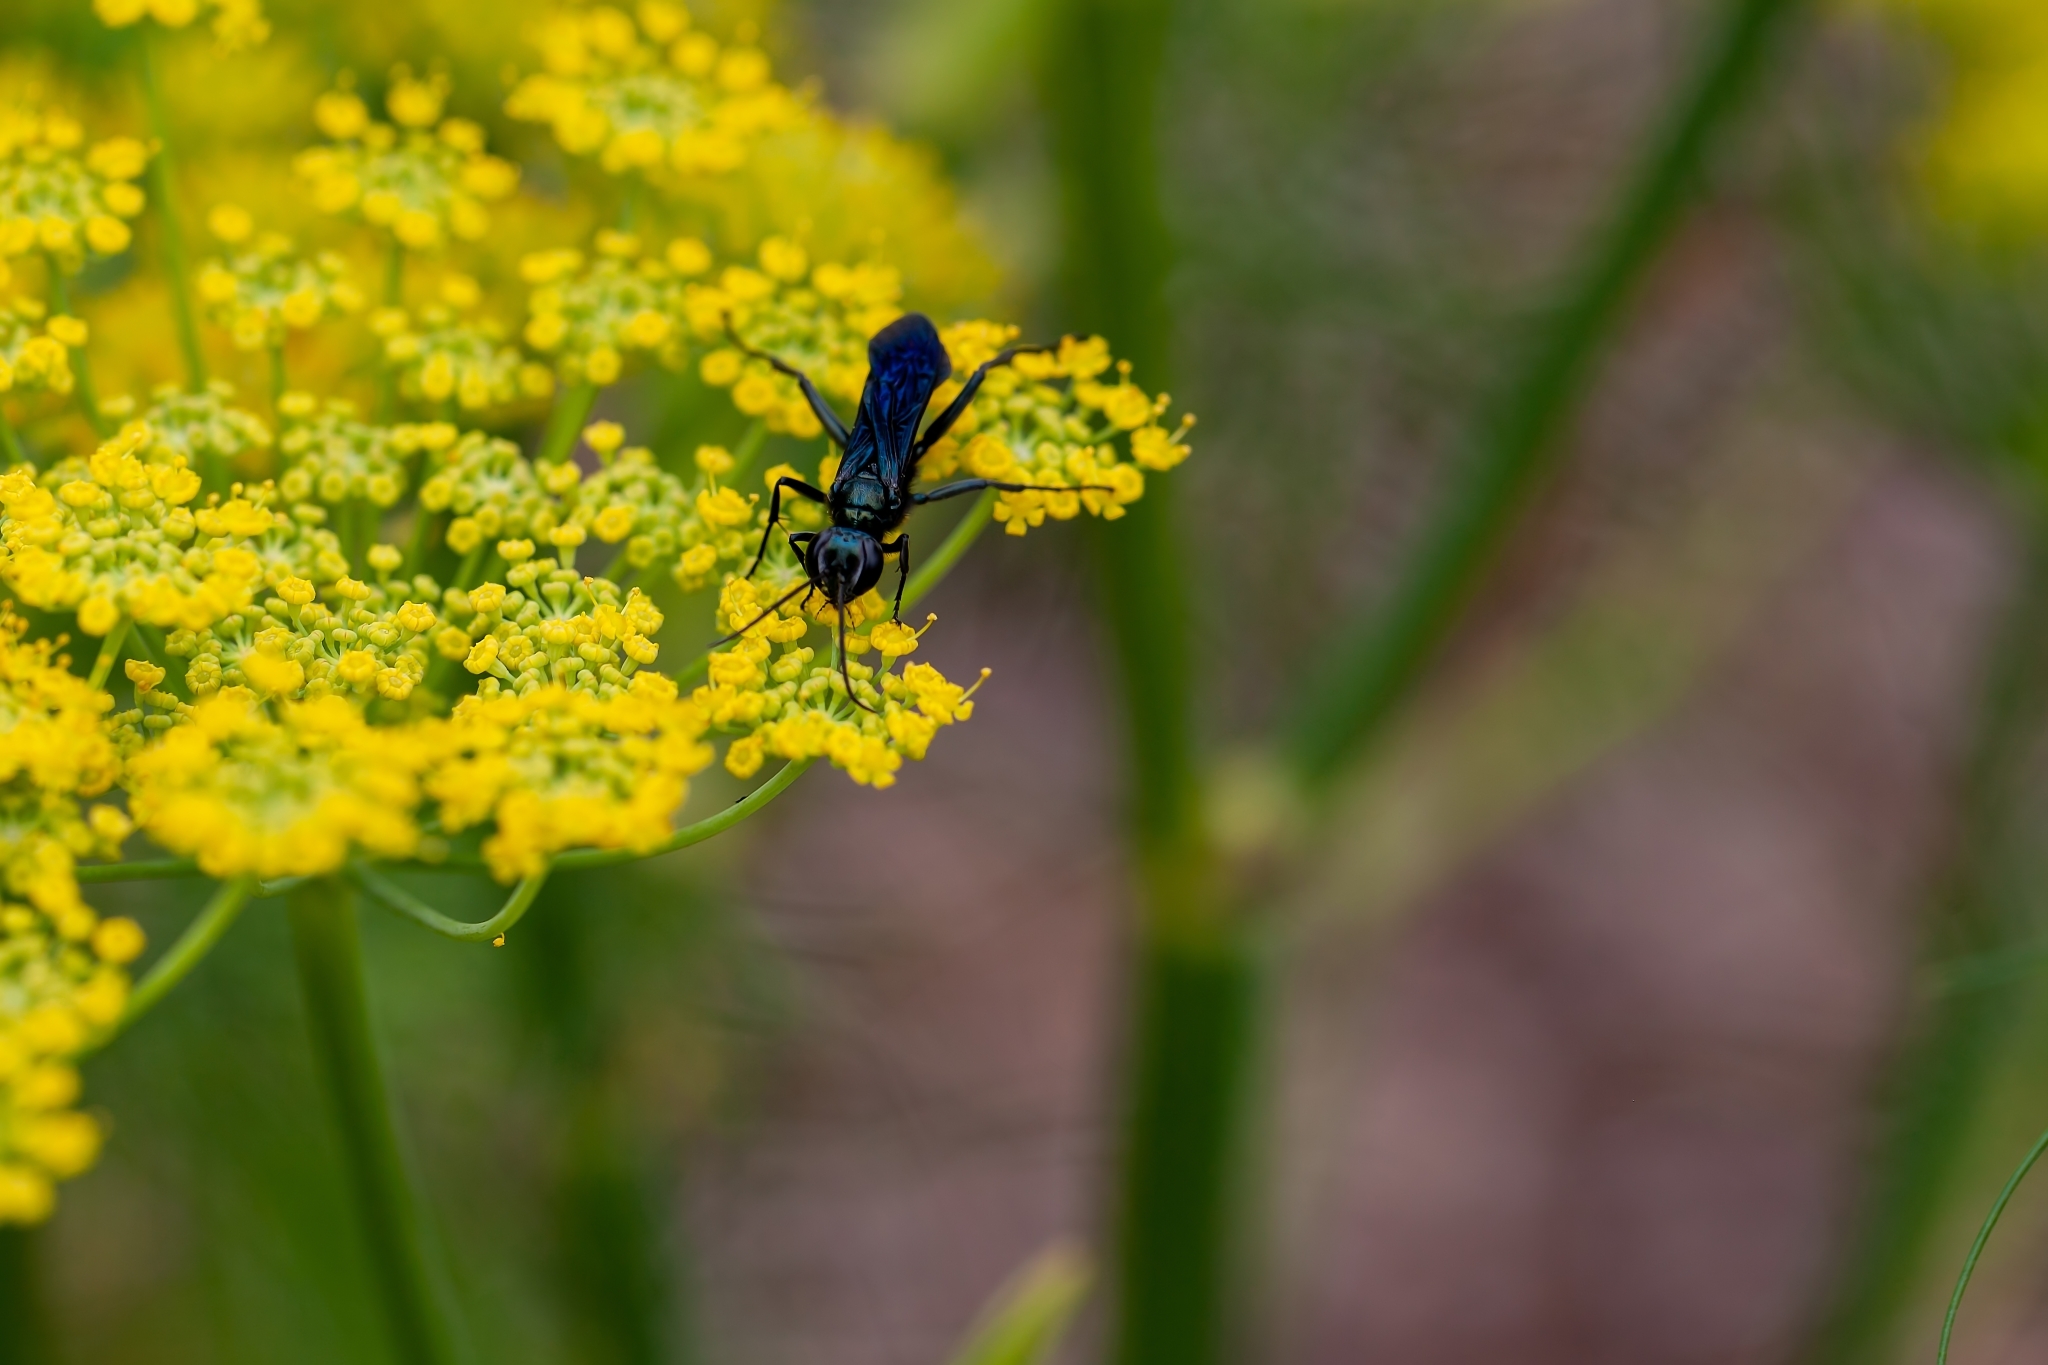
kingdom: Animalia
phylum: Arthropoda
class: Insecta
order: Hymenoptera
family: Sphecidae
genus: Chalybion
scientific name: Chalybion californicum
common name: Mud dauber
